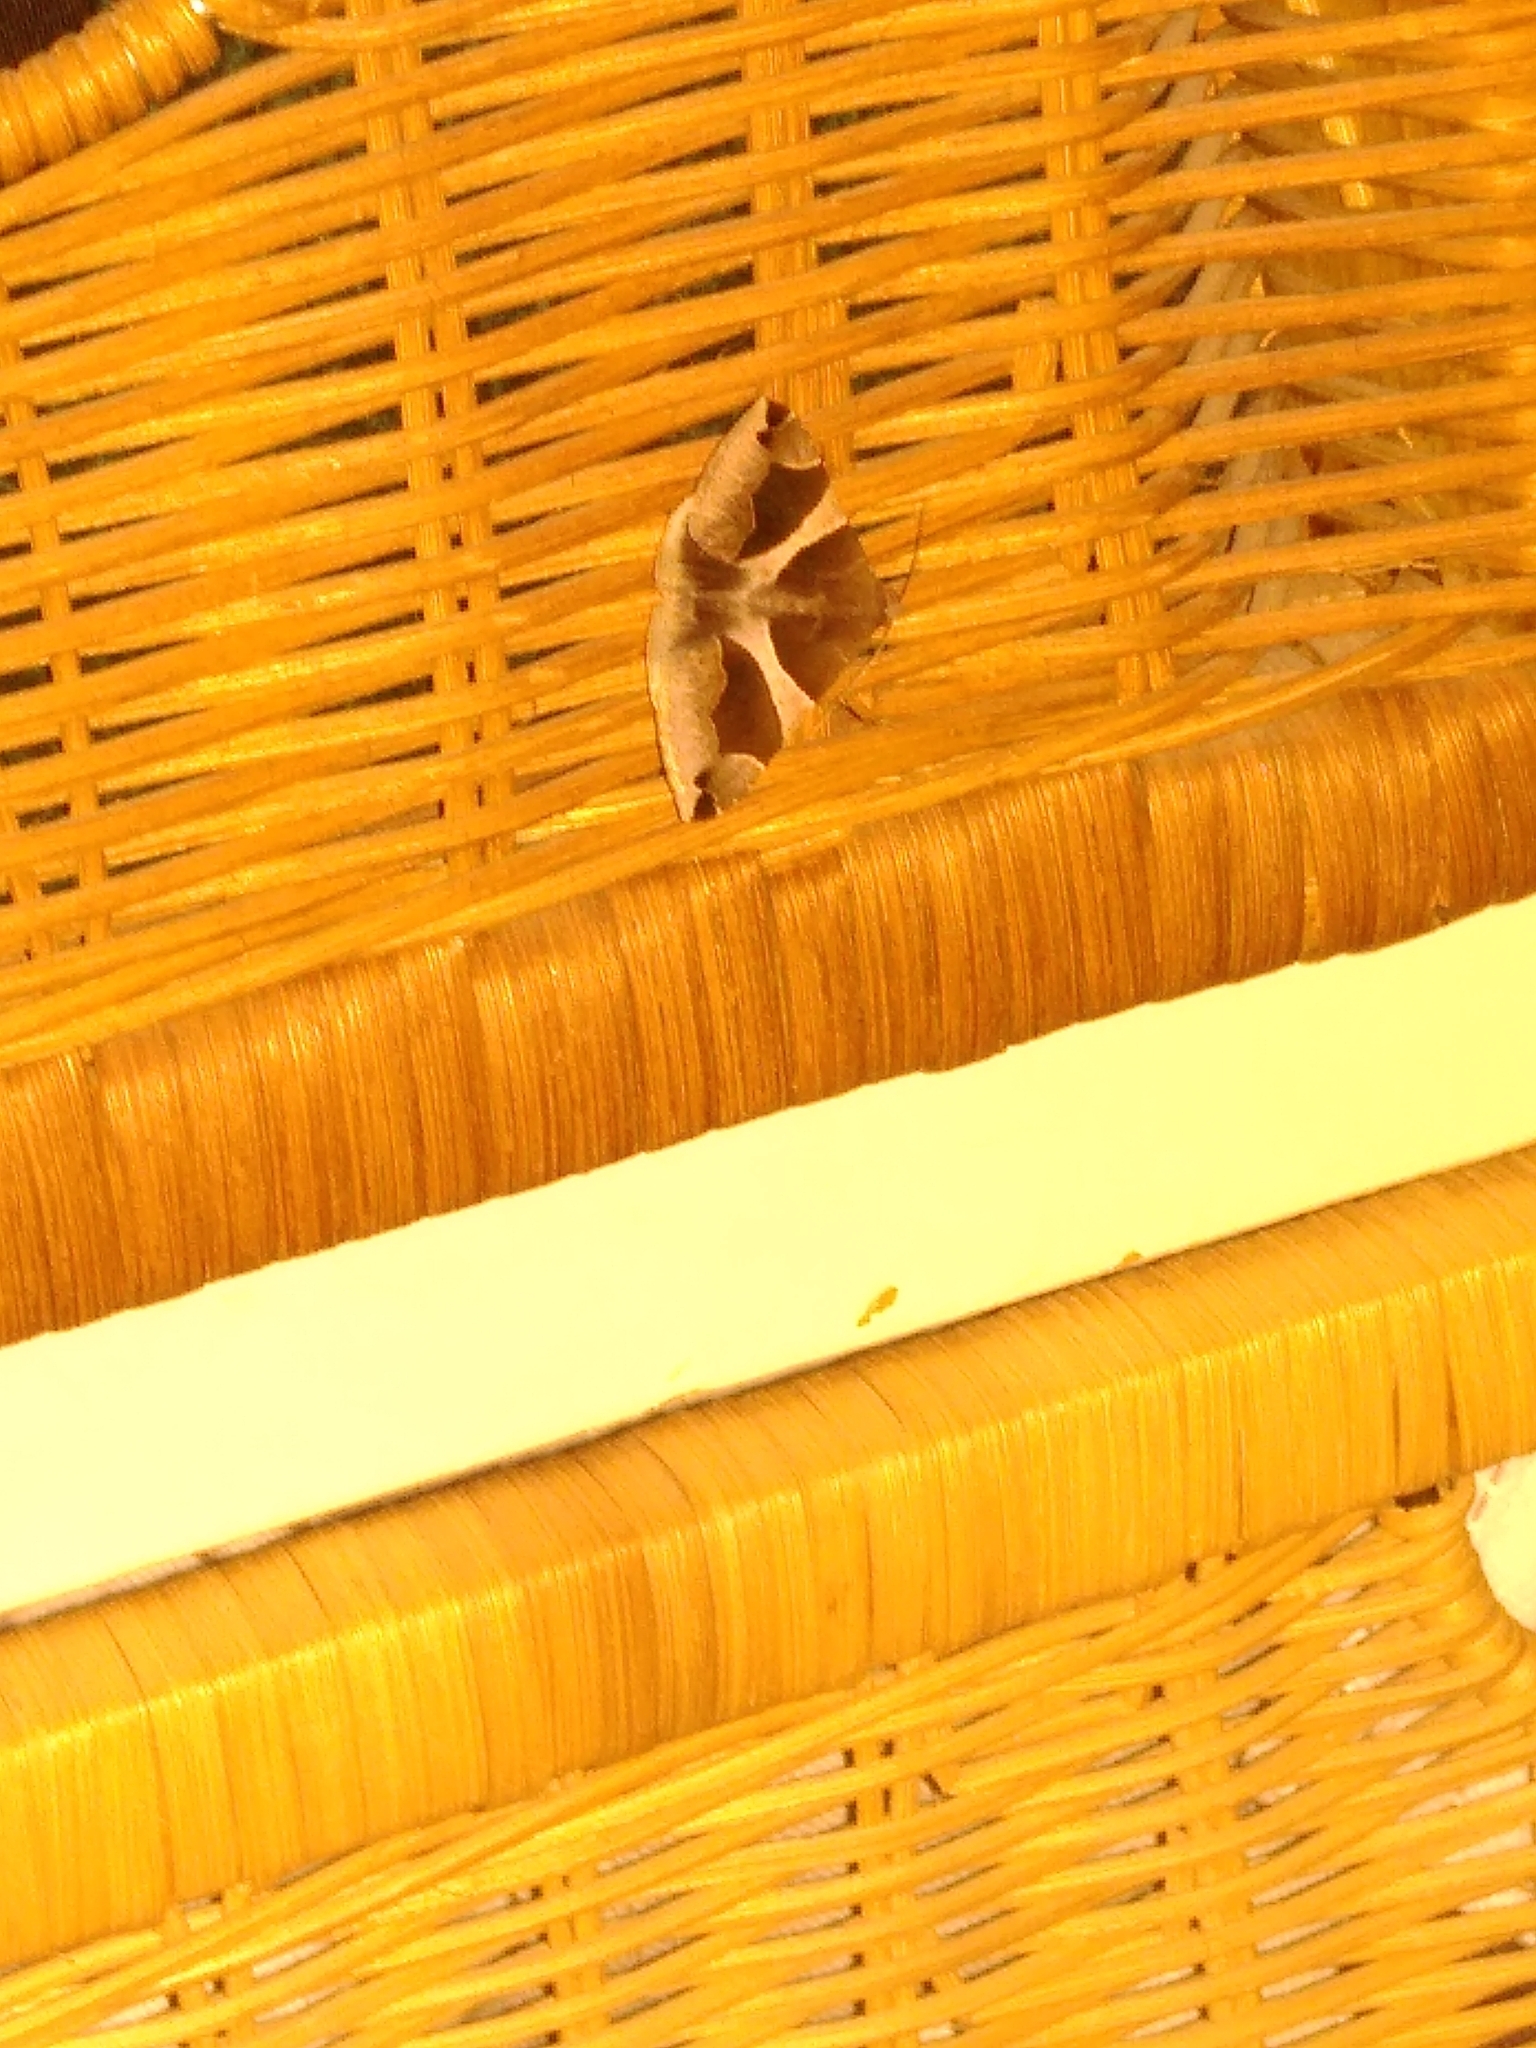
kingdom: Animalia
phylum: Arthropoda
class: Insecta
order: Lepidoptera
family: Erebidae
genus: Dysgonia
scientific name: Dysgonia algira
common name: Passenger
